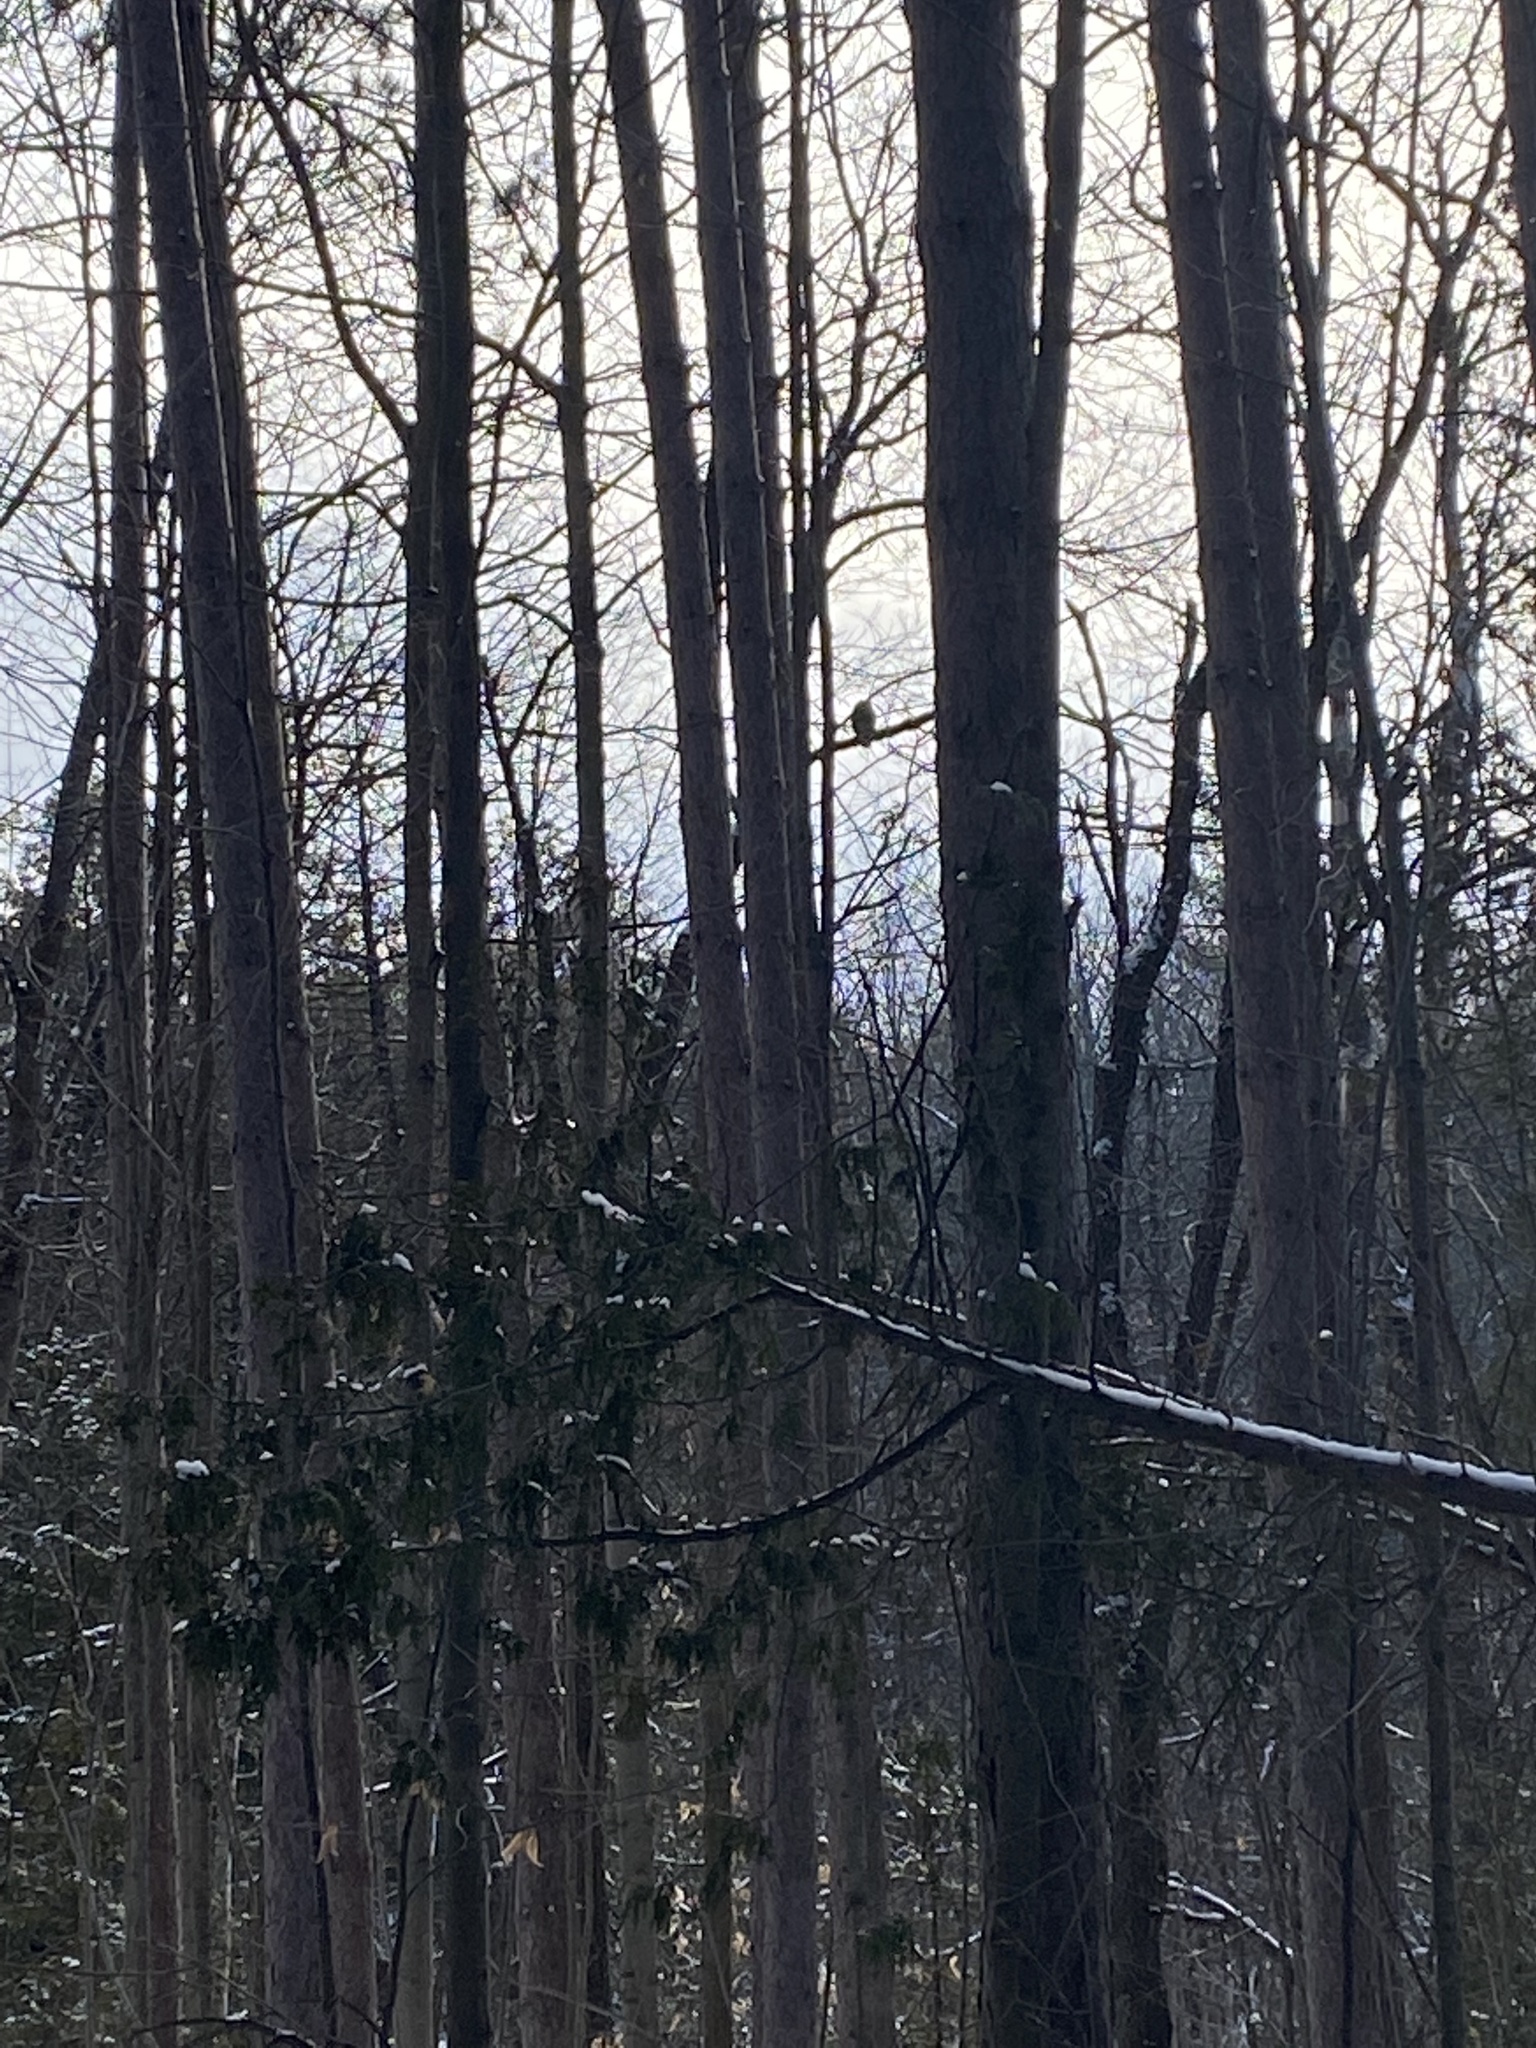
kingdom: Animalia
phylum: Chordata
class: Aves
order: Strigiformes
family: Strigidae
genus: Strix
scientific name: Strix varia
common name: Barred owl
